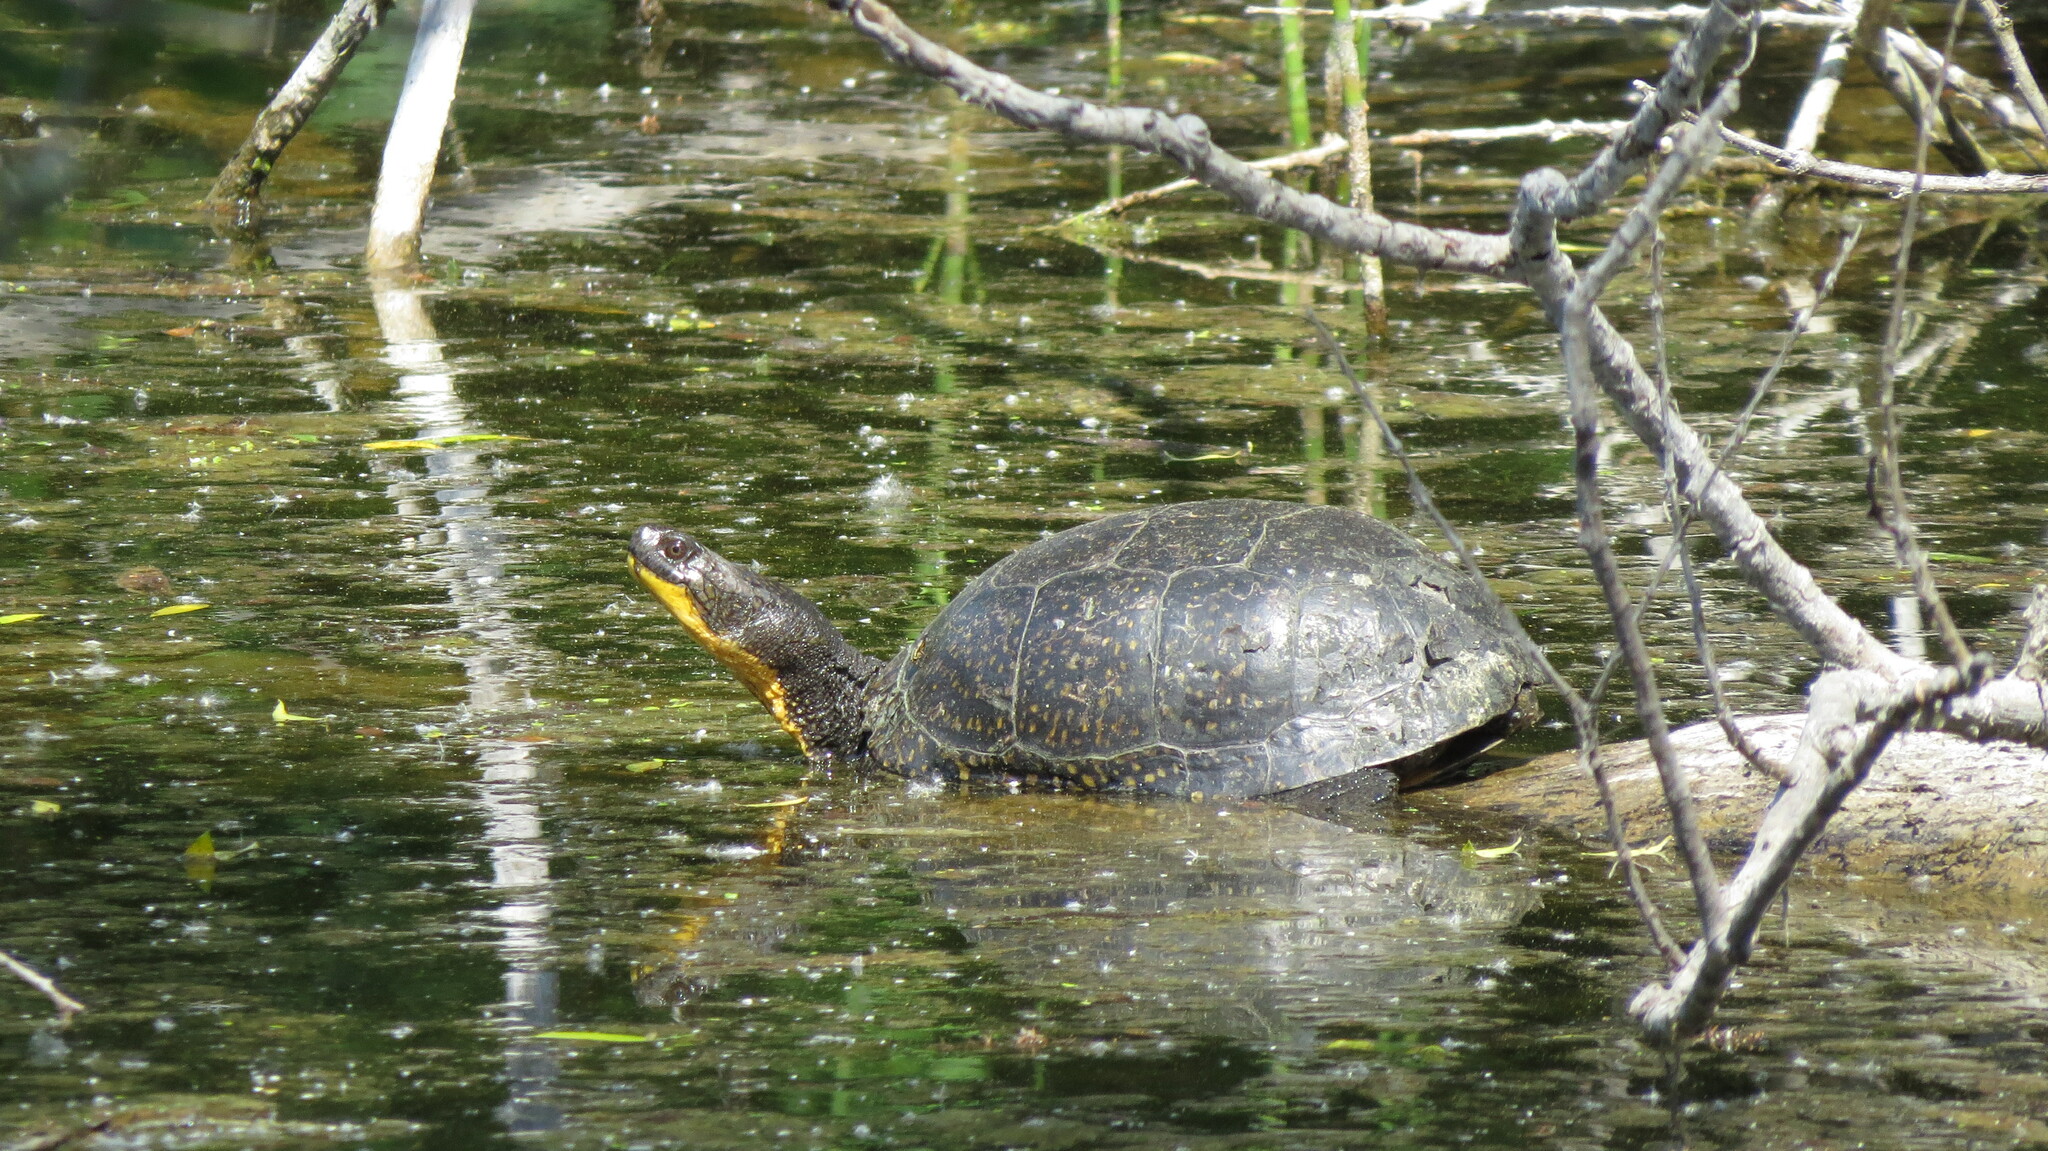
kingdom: Animalia
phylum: Chordata
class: Testudines
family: Emydidae
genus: Emys
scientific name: Emys blandingii
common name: Blanding's turtle
